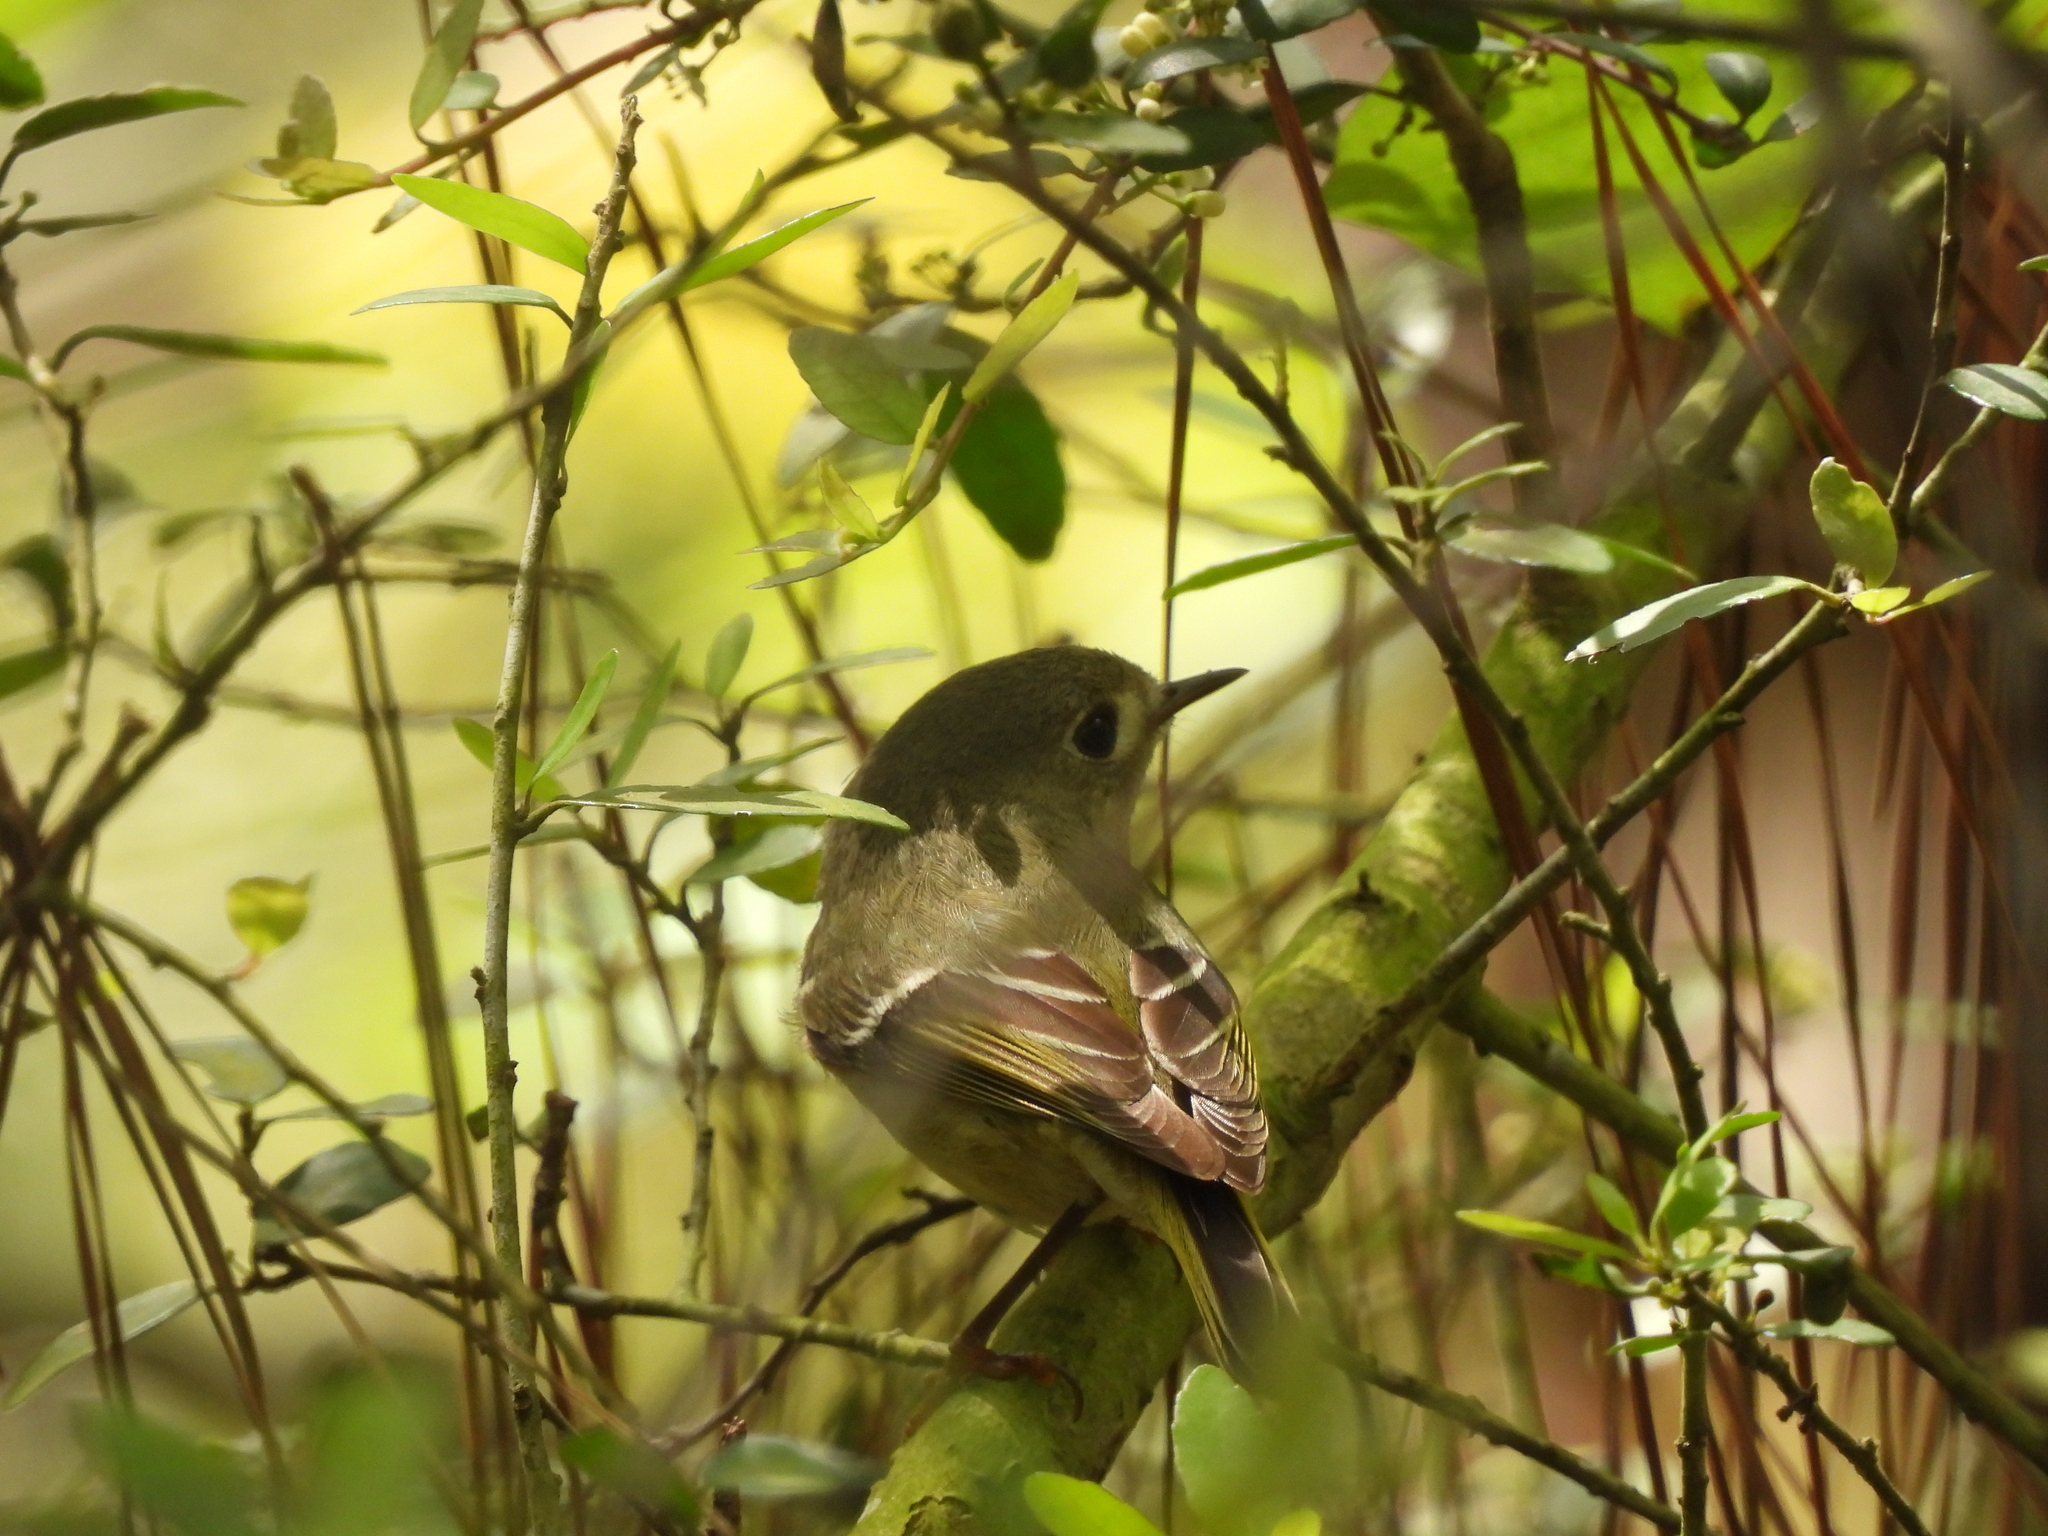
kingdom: Animalia
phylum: Chordata
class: Aves
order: Passeriformes
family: Regulidae
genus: Regulus
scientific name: Regulus calendula
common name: Ruby-crowned kinglet
